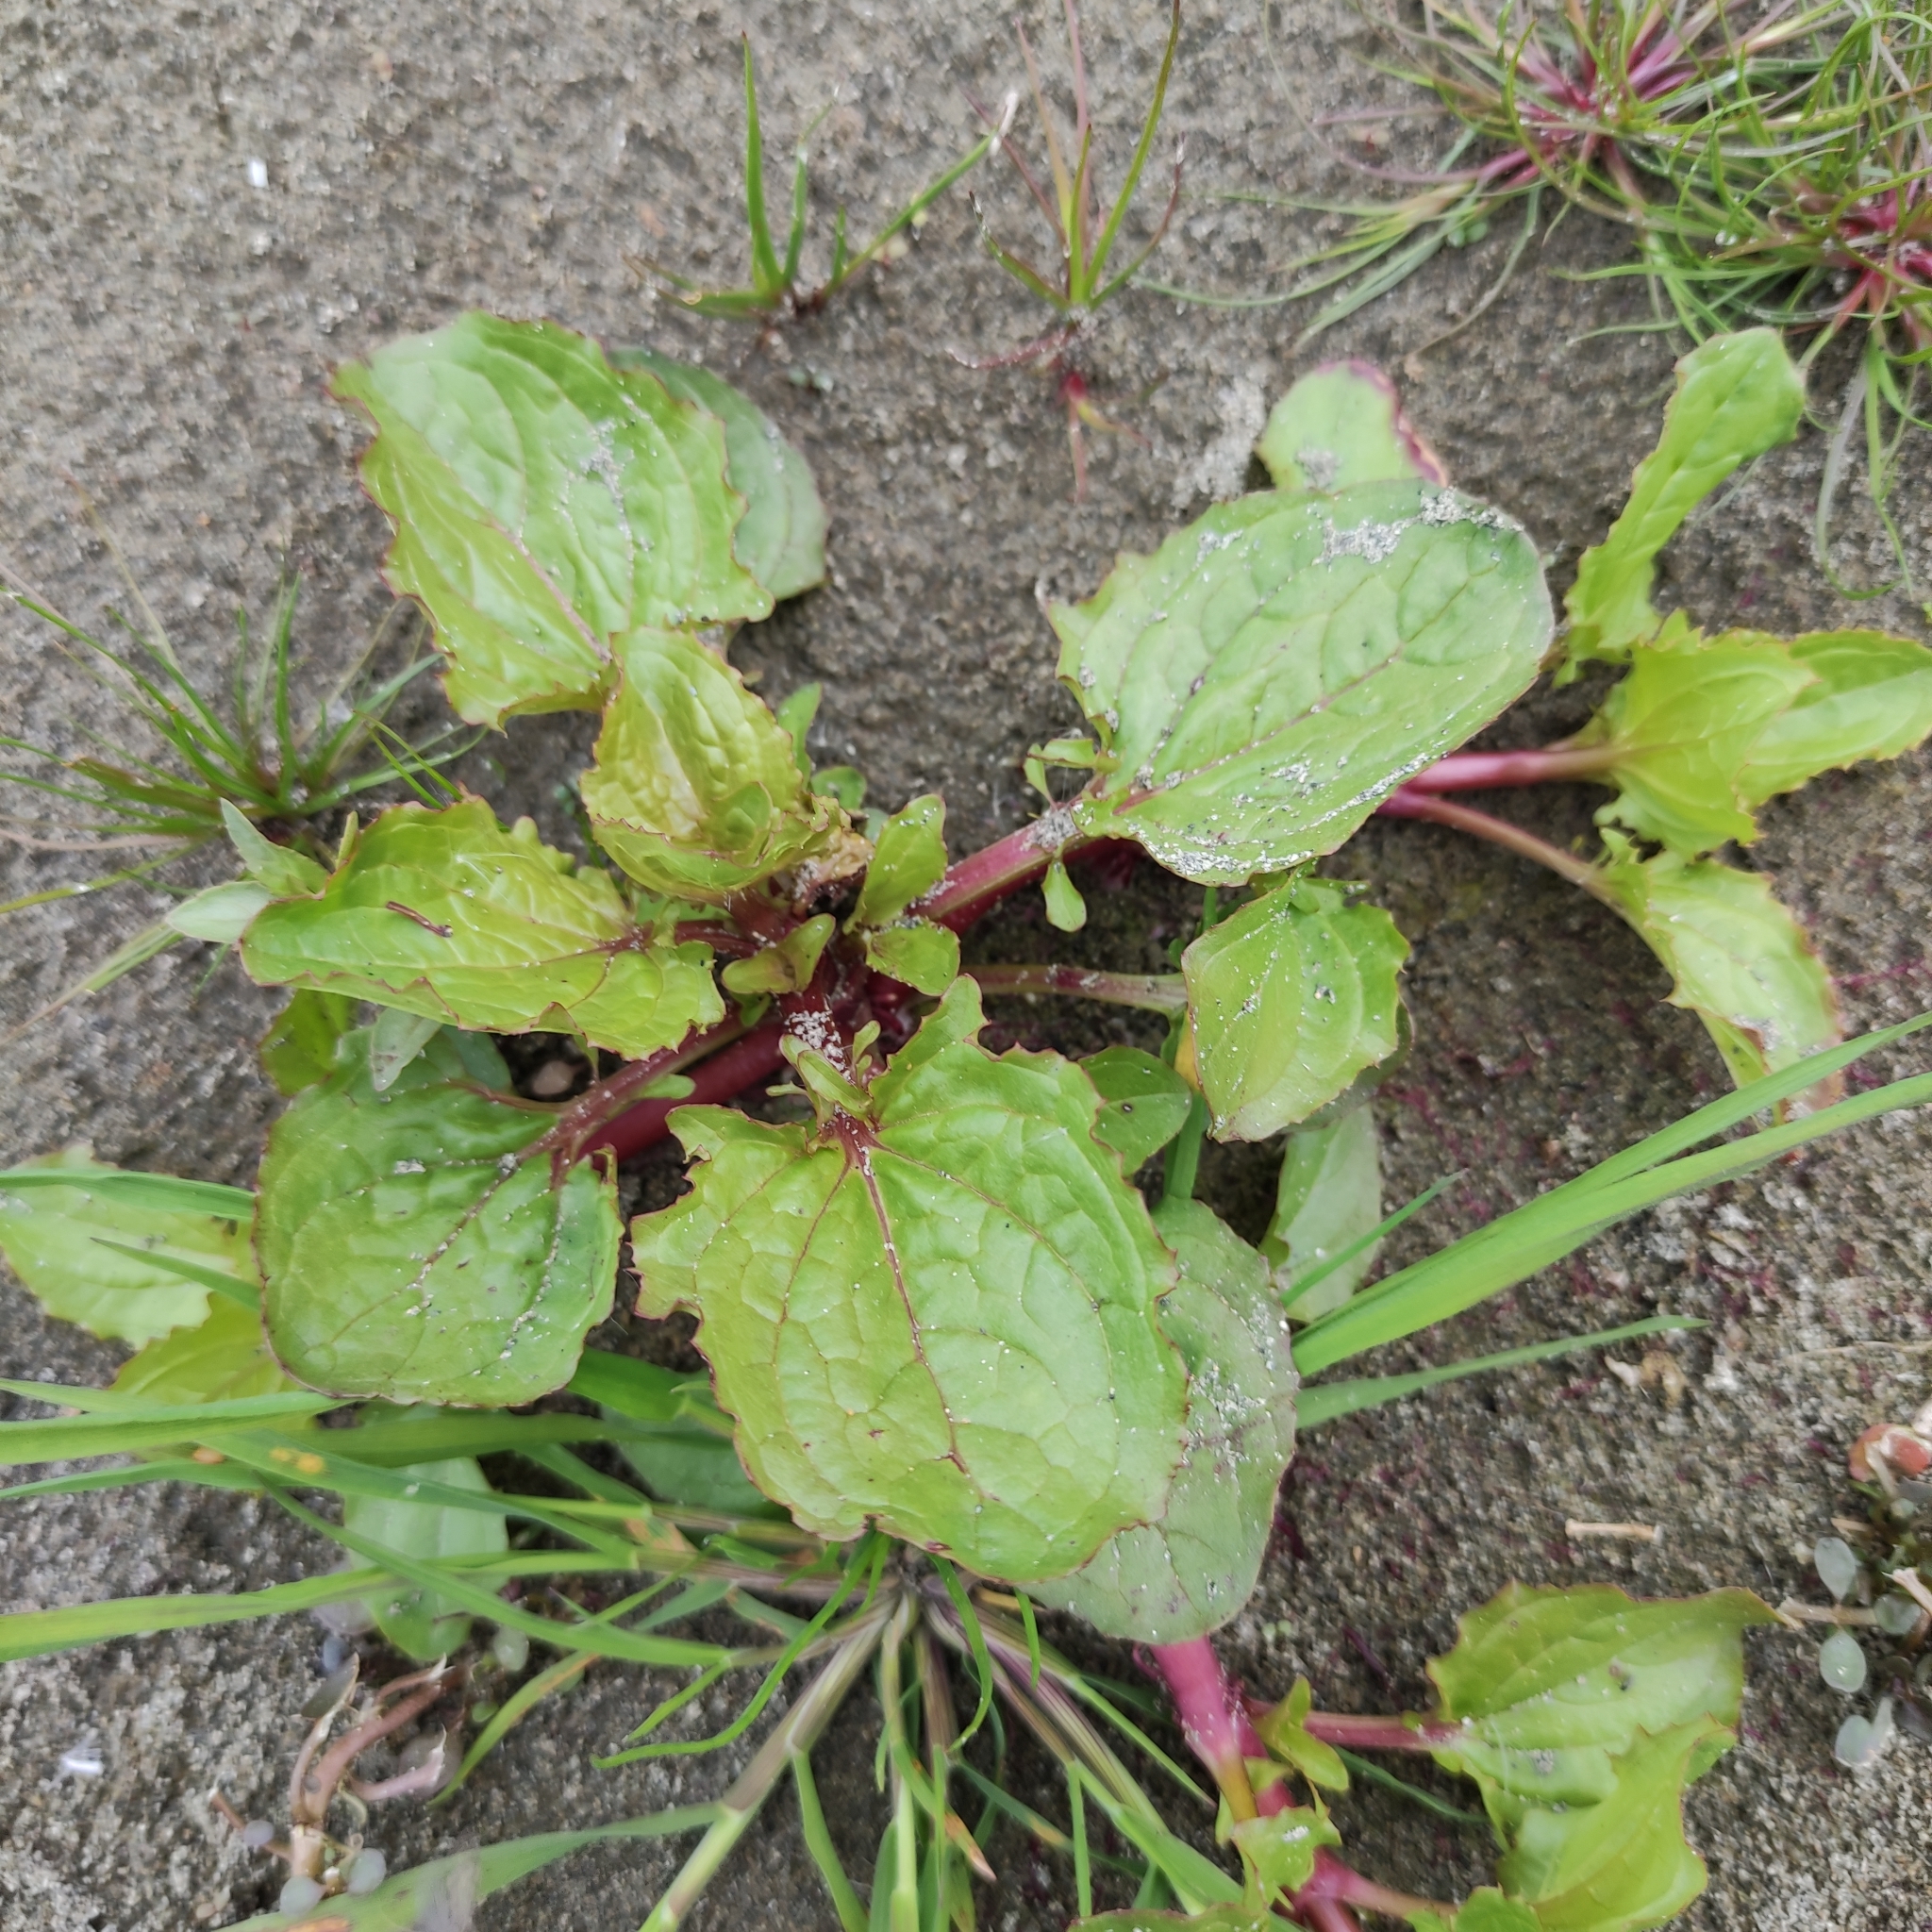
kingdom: Plantae
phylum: Tracheophyta
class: Magnoliopsida
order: Lamiales
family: Phrymaceae
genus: Erythranthe
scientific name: Erythranthe guttata
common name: Monkeyflower
